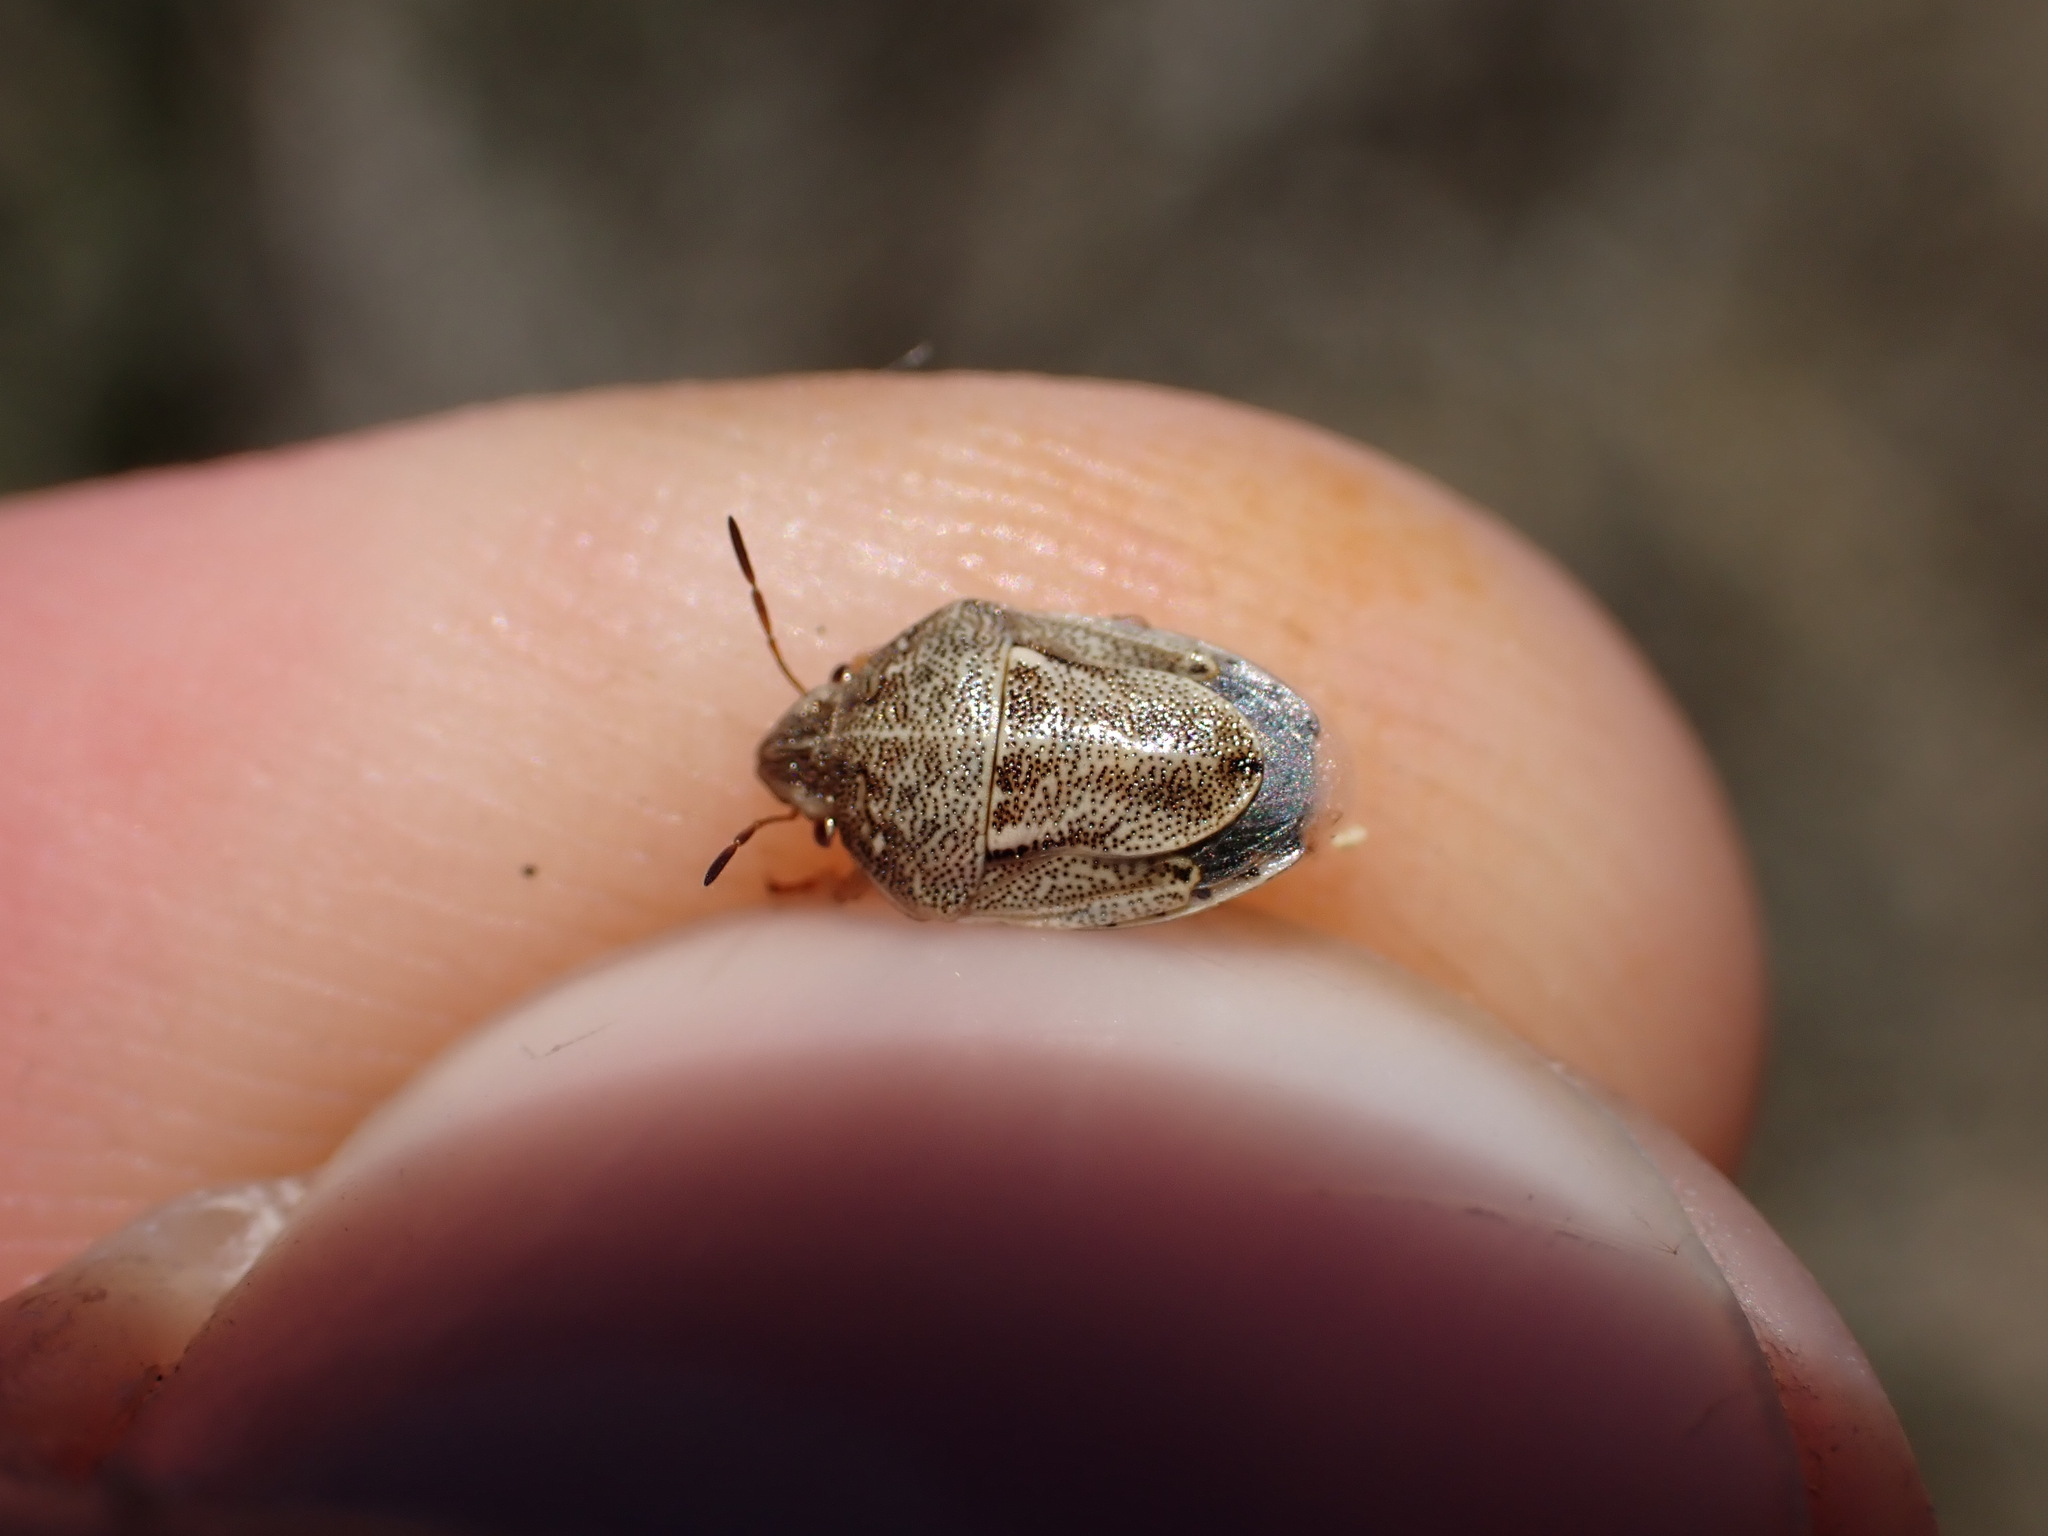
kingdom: Animalia
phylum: Arthropoda
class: Insecta
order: Hemiptera
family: Pentatomidae
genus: Neottiglossa
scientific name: Neottiglossa leporina
